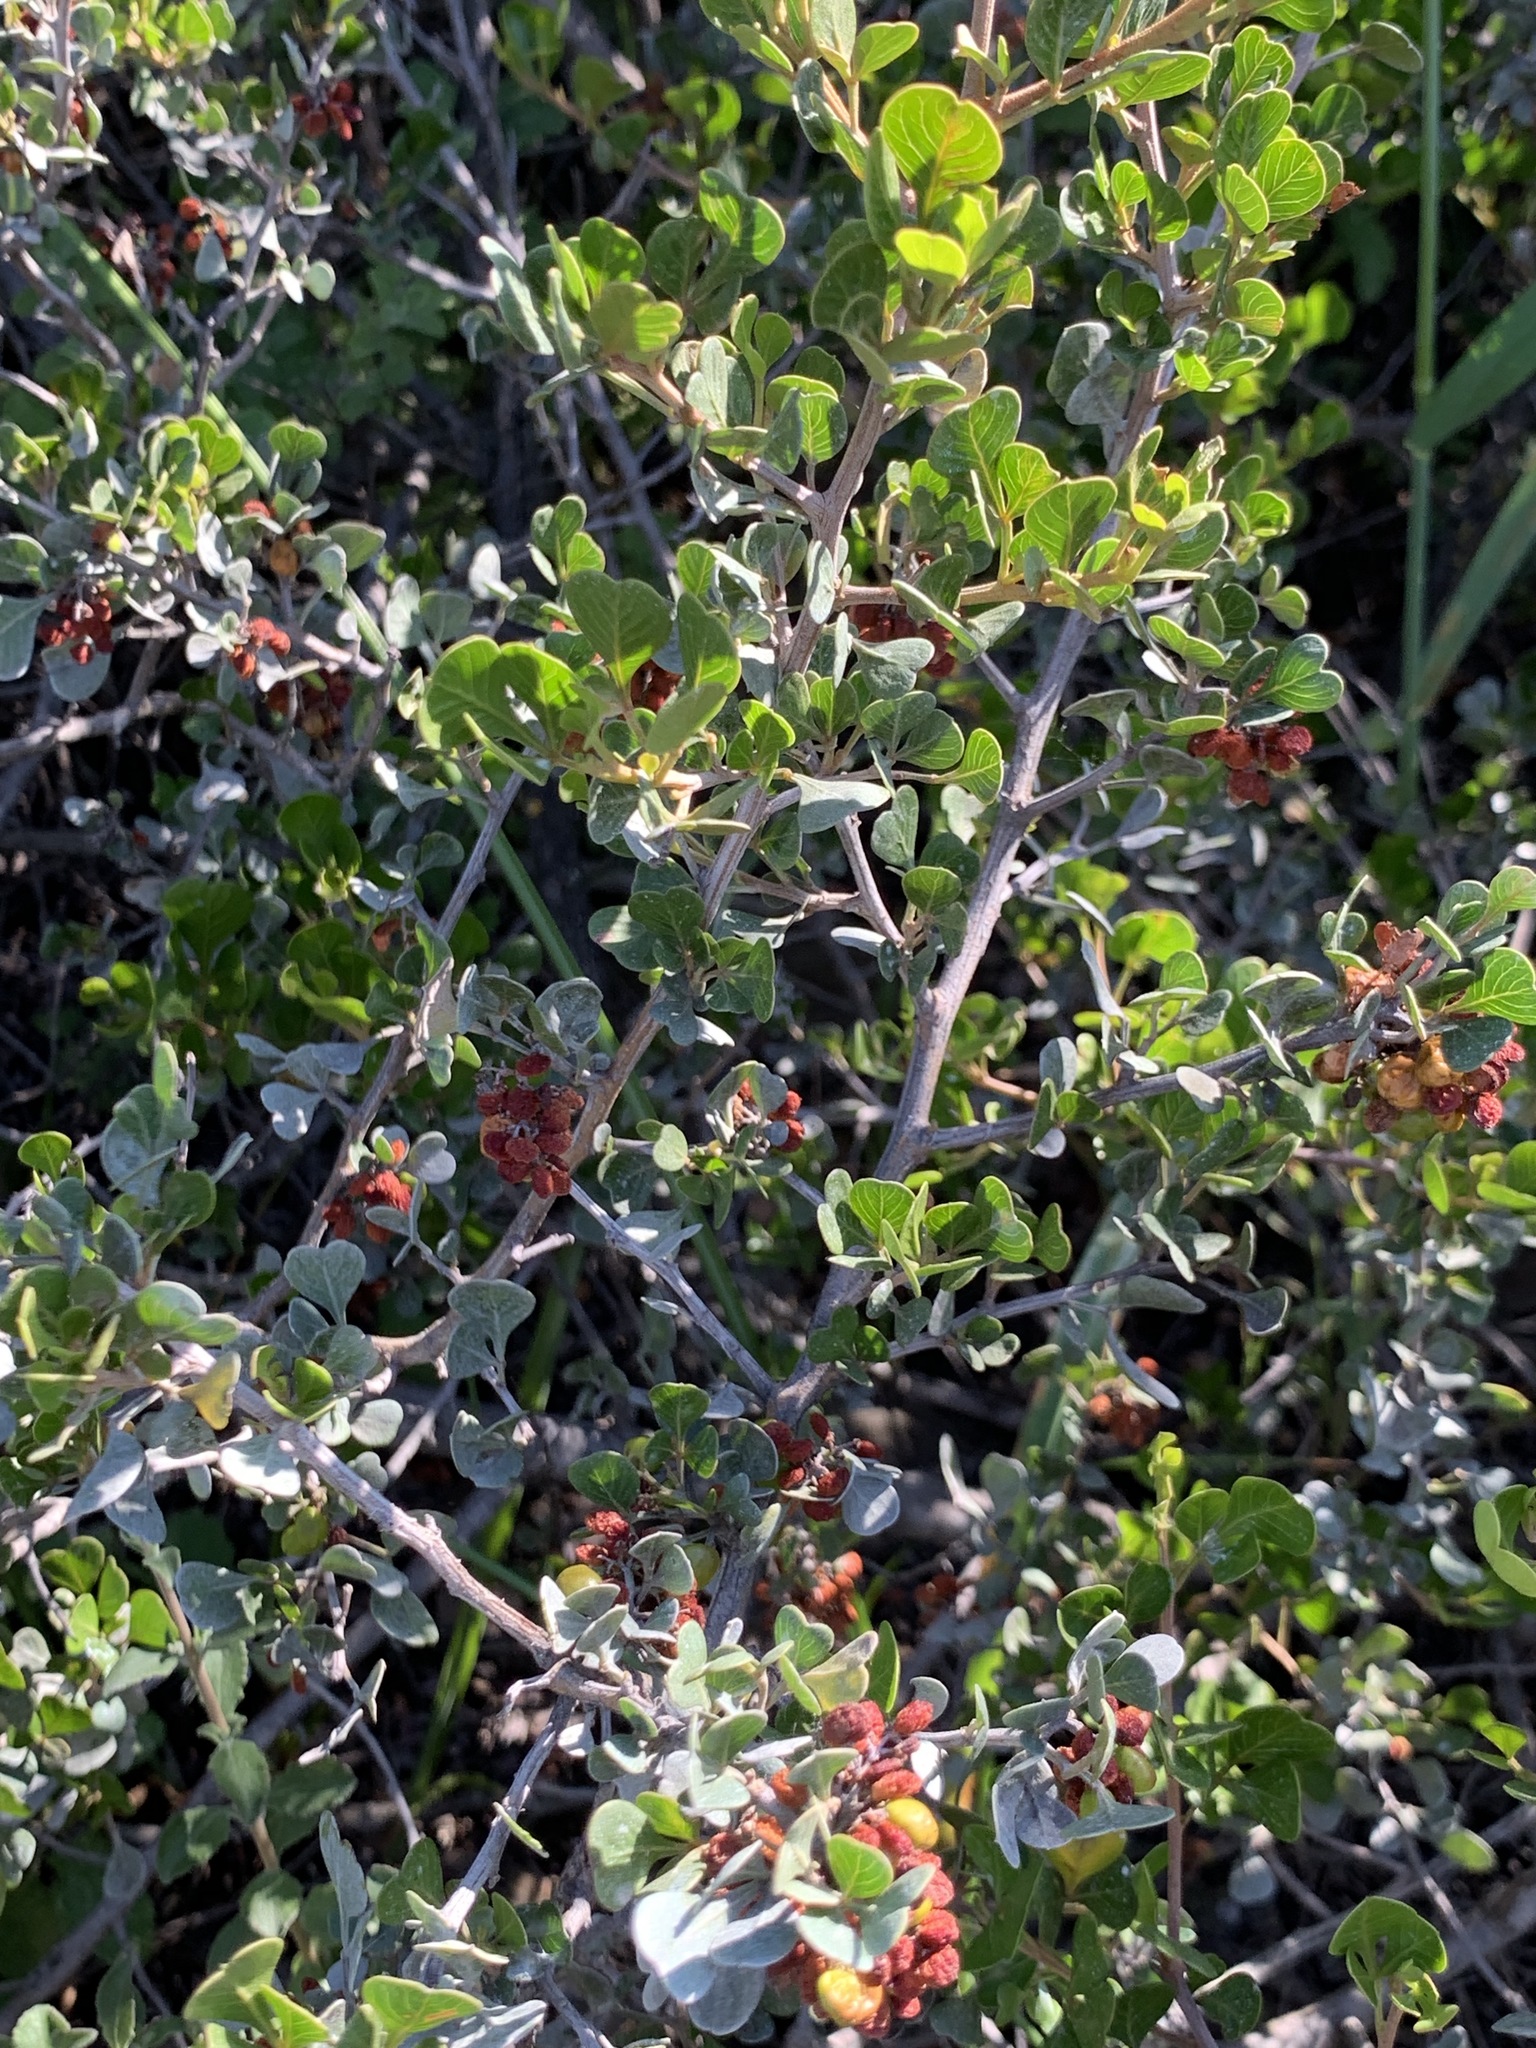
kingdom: Plantae
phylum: Tracheophyta
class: Magnoliopsida
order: Sapindales
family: Anacardiaceae
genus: Searsia
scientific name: Searsia glauca
